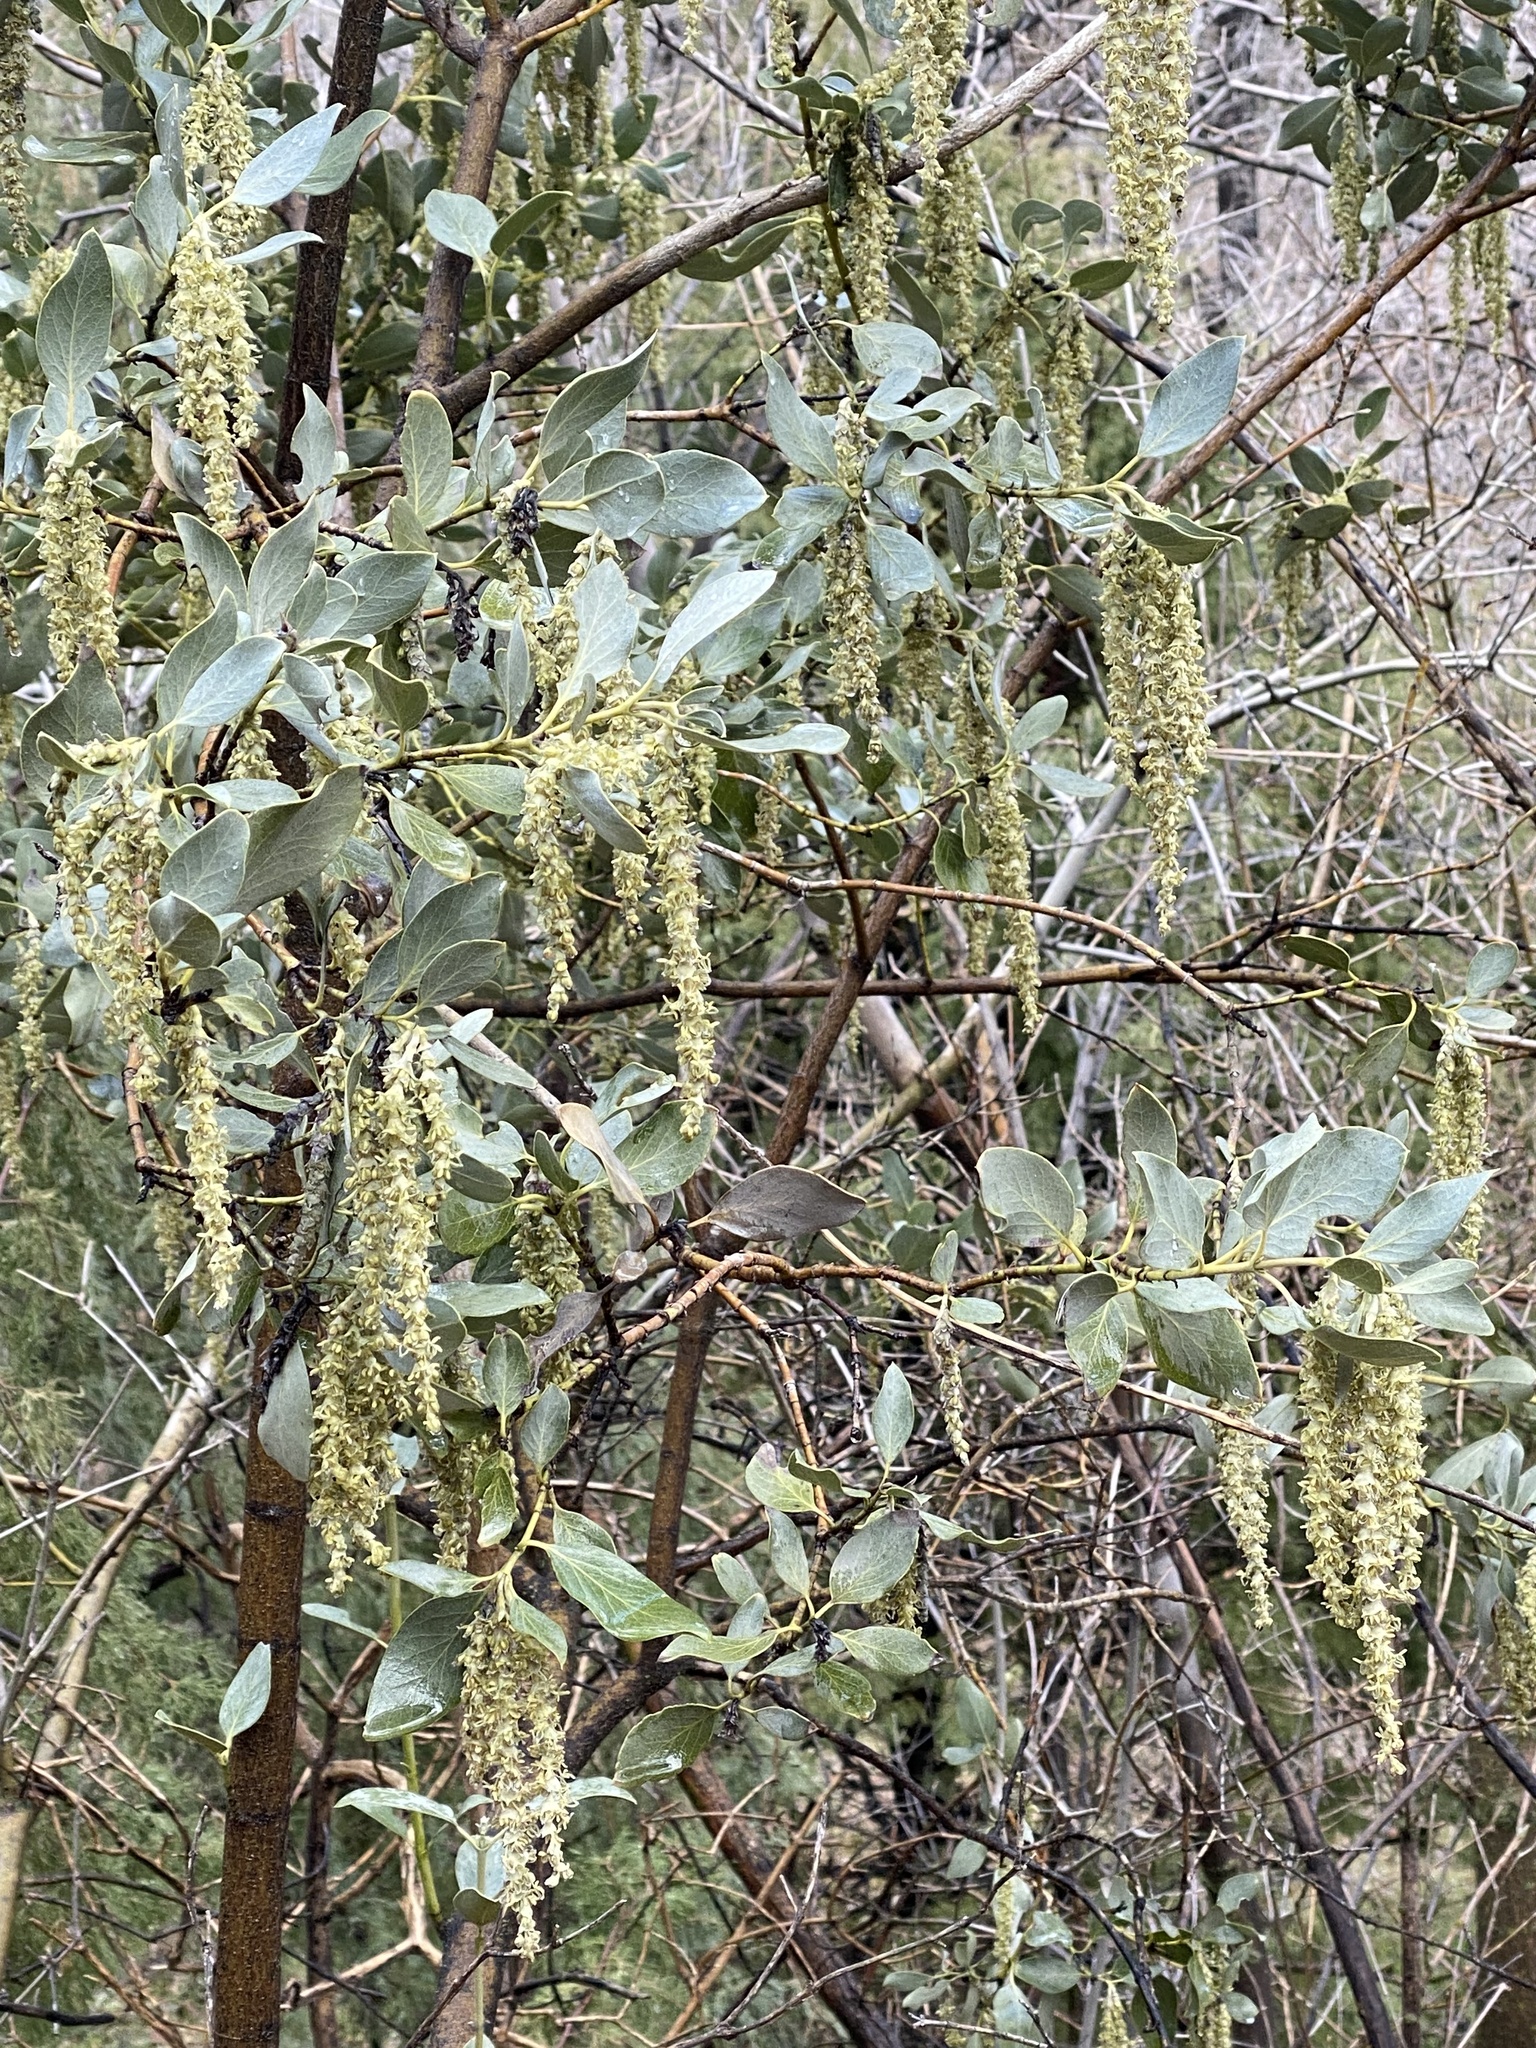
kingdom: Plantae
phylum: Tracheophyta
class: Magnoliopsida
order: Garryales
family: Garryaceae
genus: Garrya
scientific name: Garrya flavescens
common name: Ashy silk-tassel
